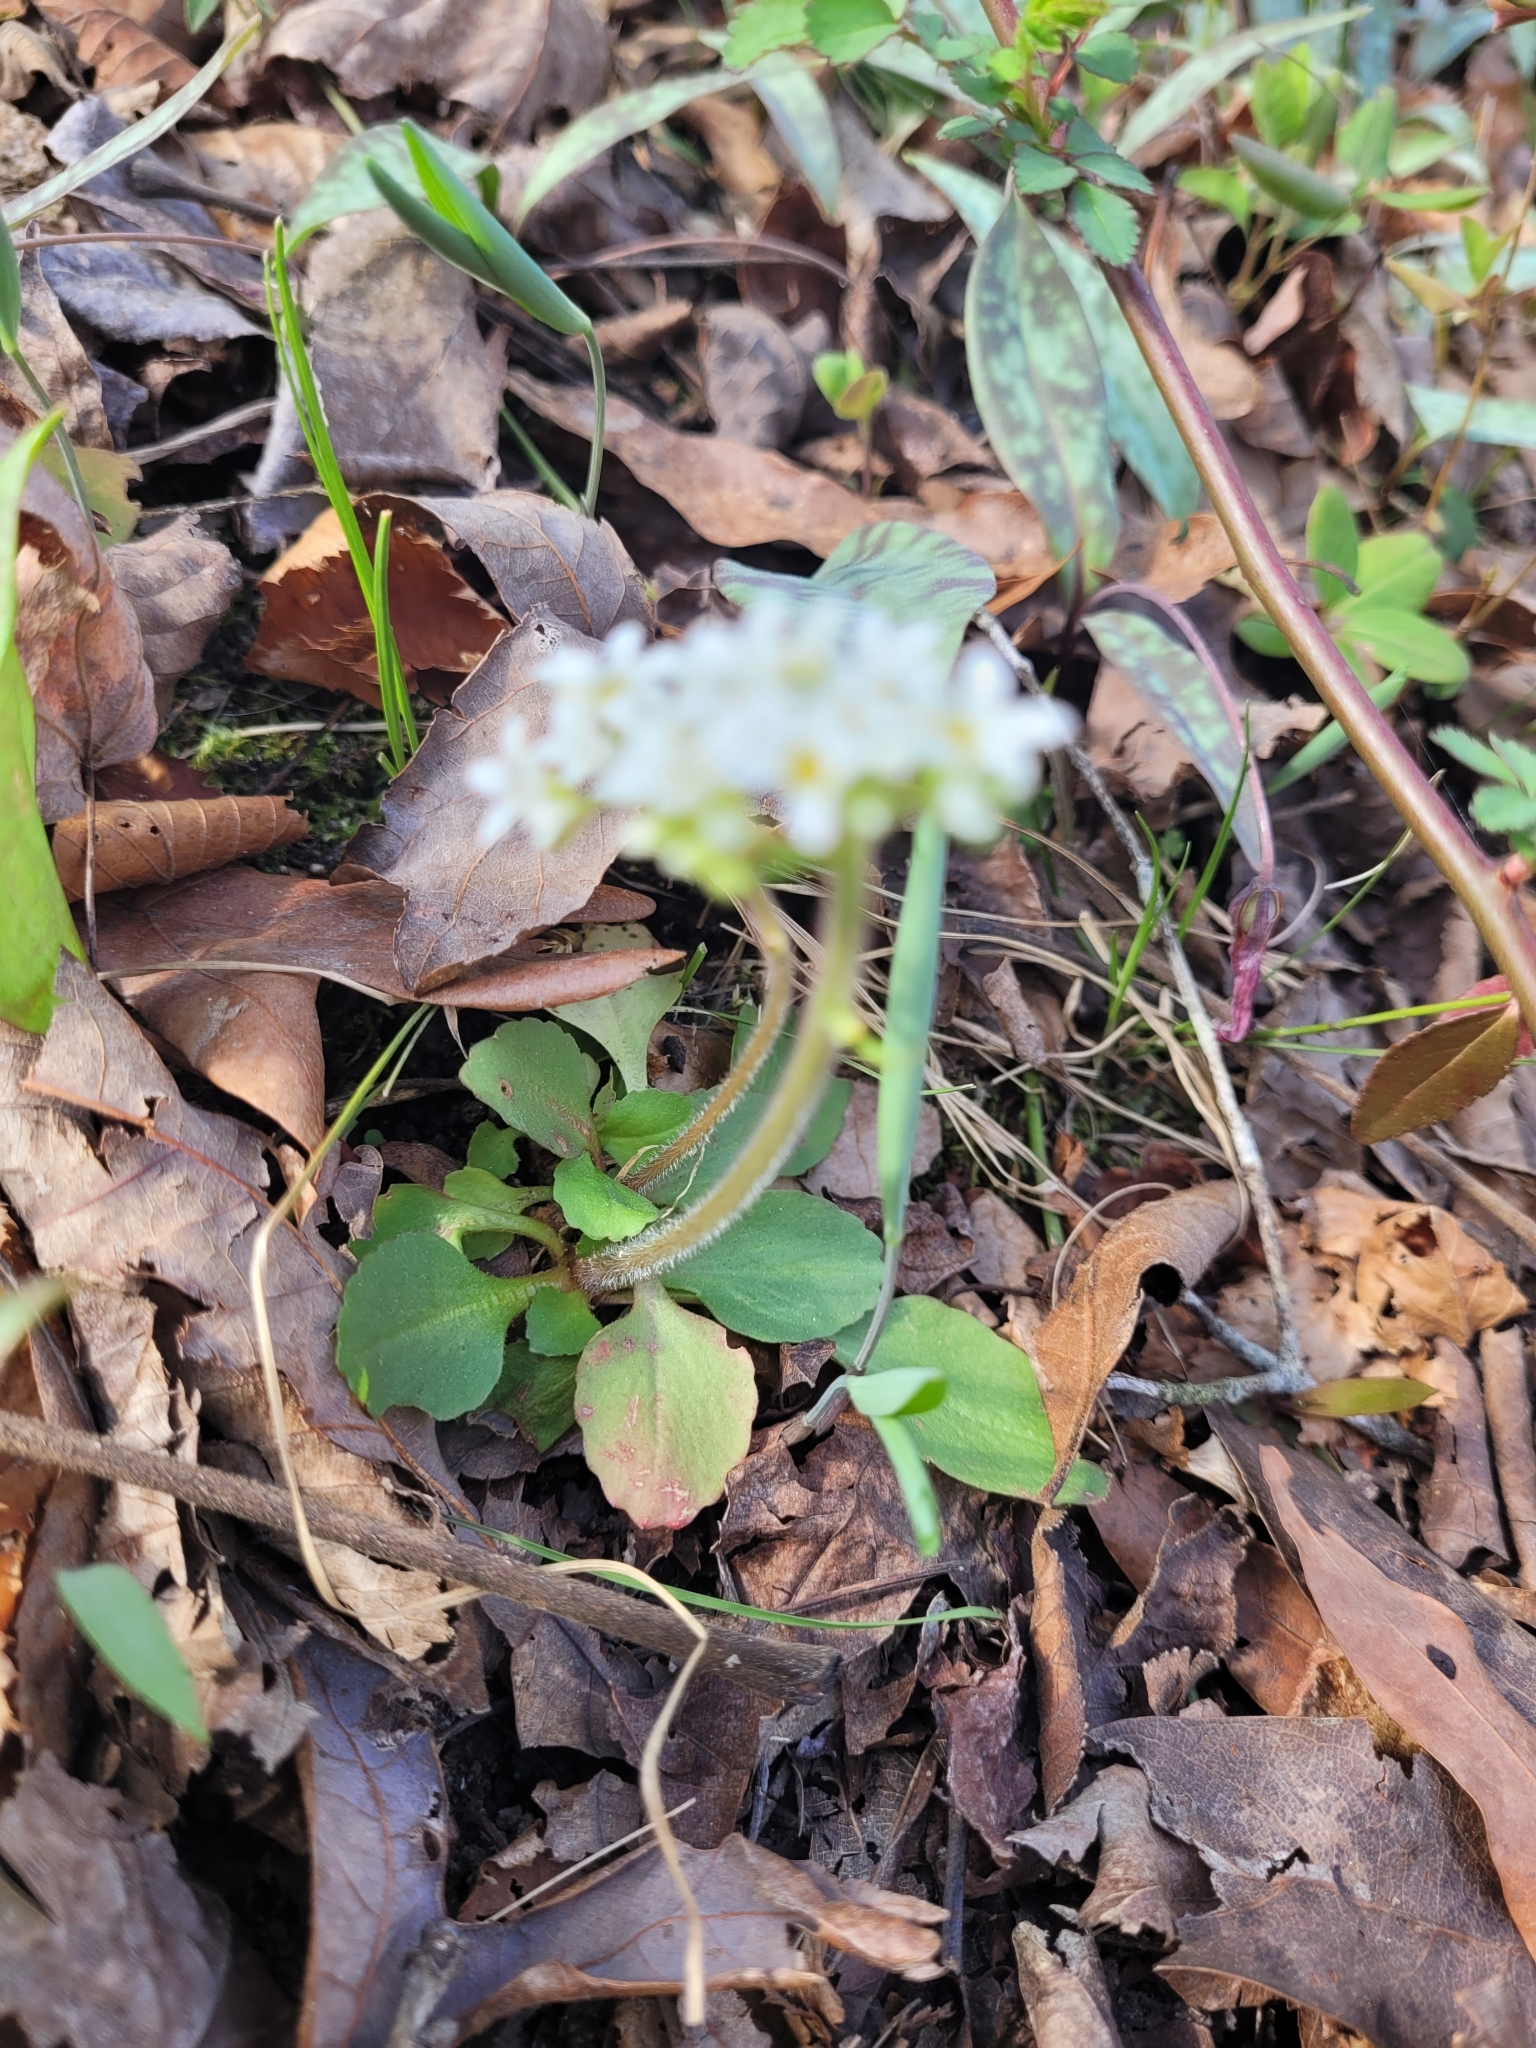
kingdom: Plantae
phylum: Tracheophyta
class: Magnoliopsida
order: Saxifragales
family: Saxifragaceae
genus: Micranthes
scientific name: Micranthes virginiensis
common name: Early saxifrage
